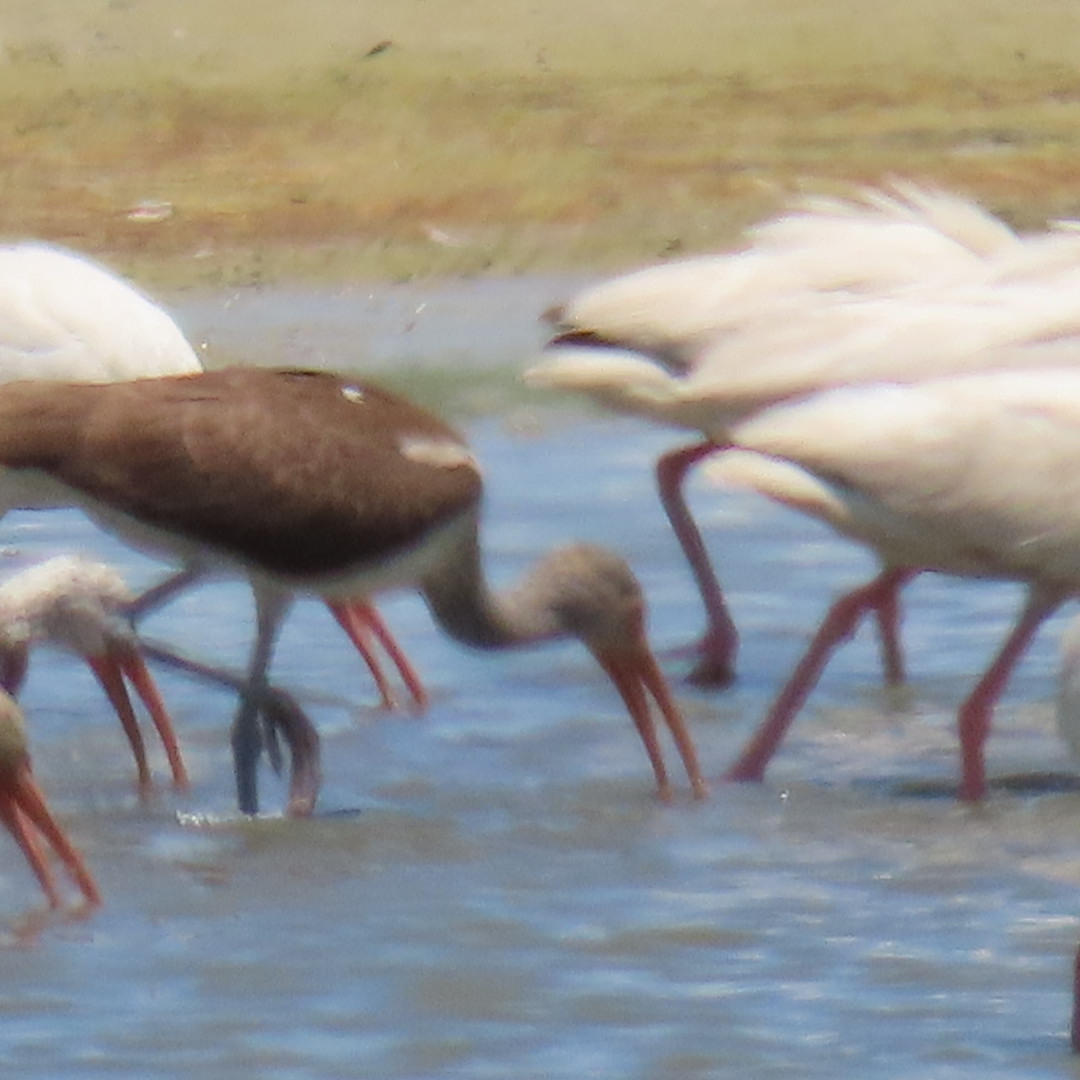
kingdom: Animalia
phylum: Chordata
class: Aves
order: Pelecaniformes
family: Threskiornithidae
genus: Eudocimus
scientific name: Eudocimus albus
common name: White ibis
